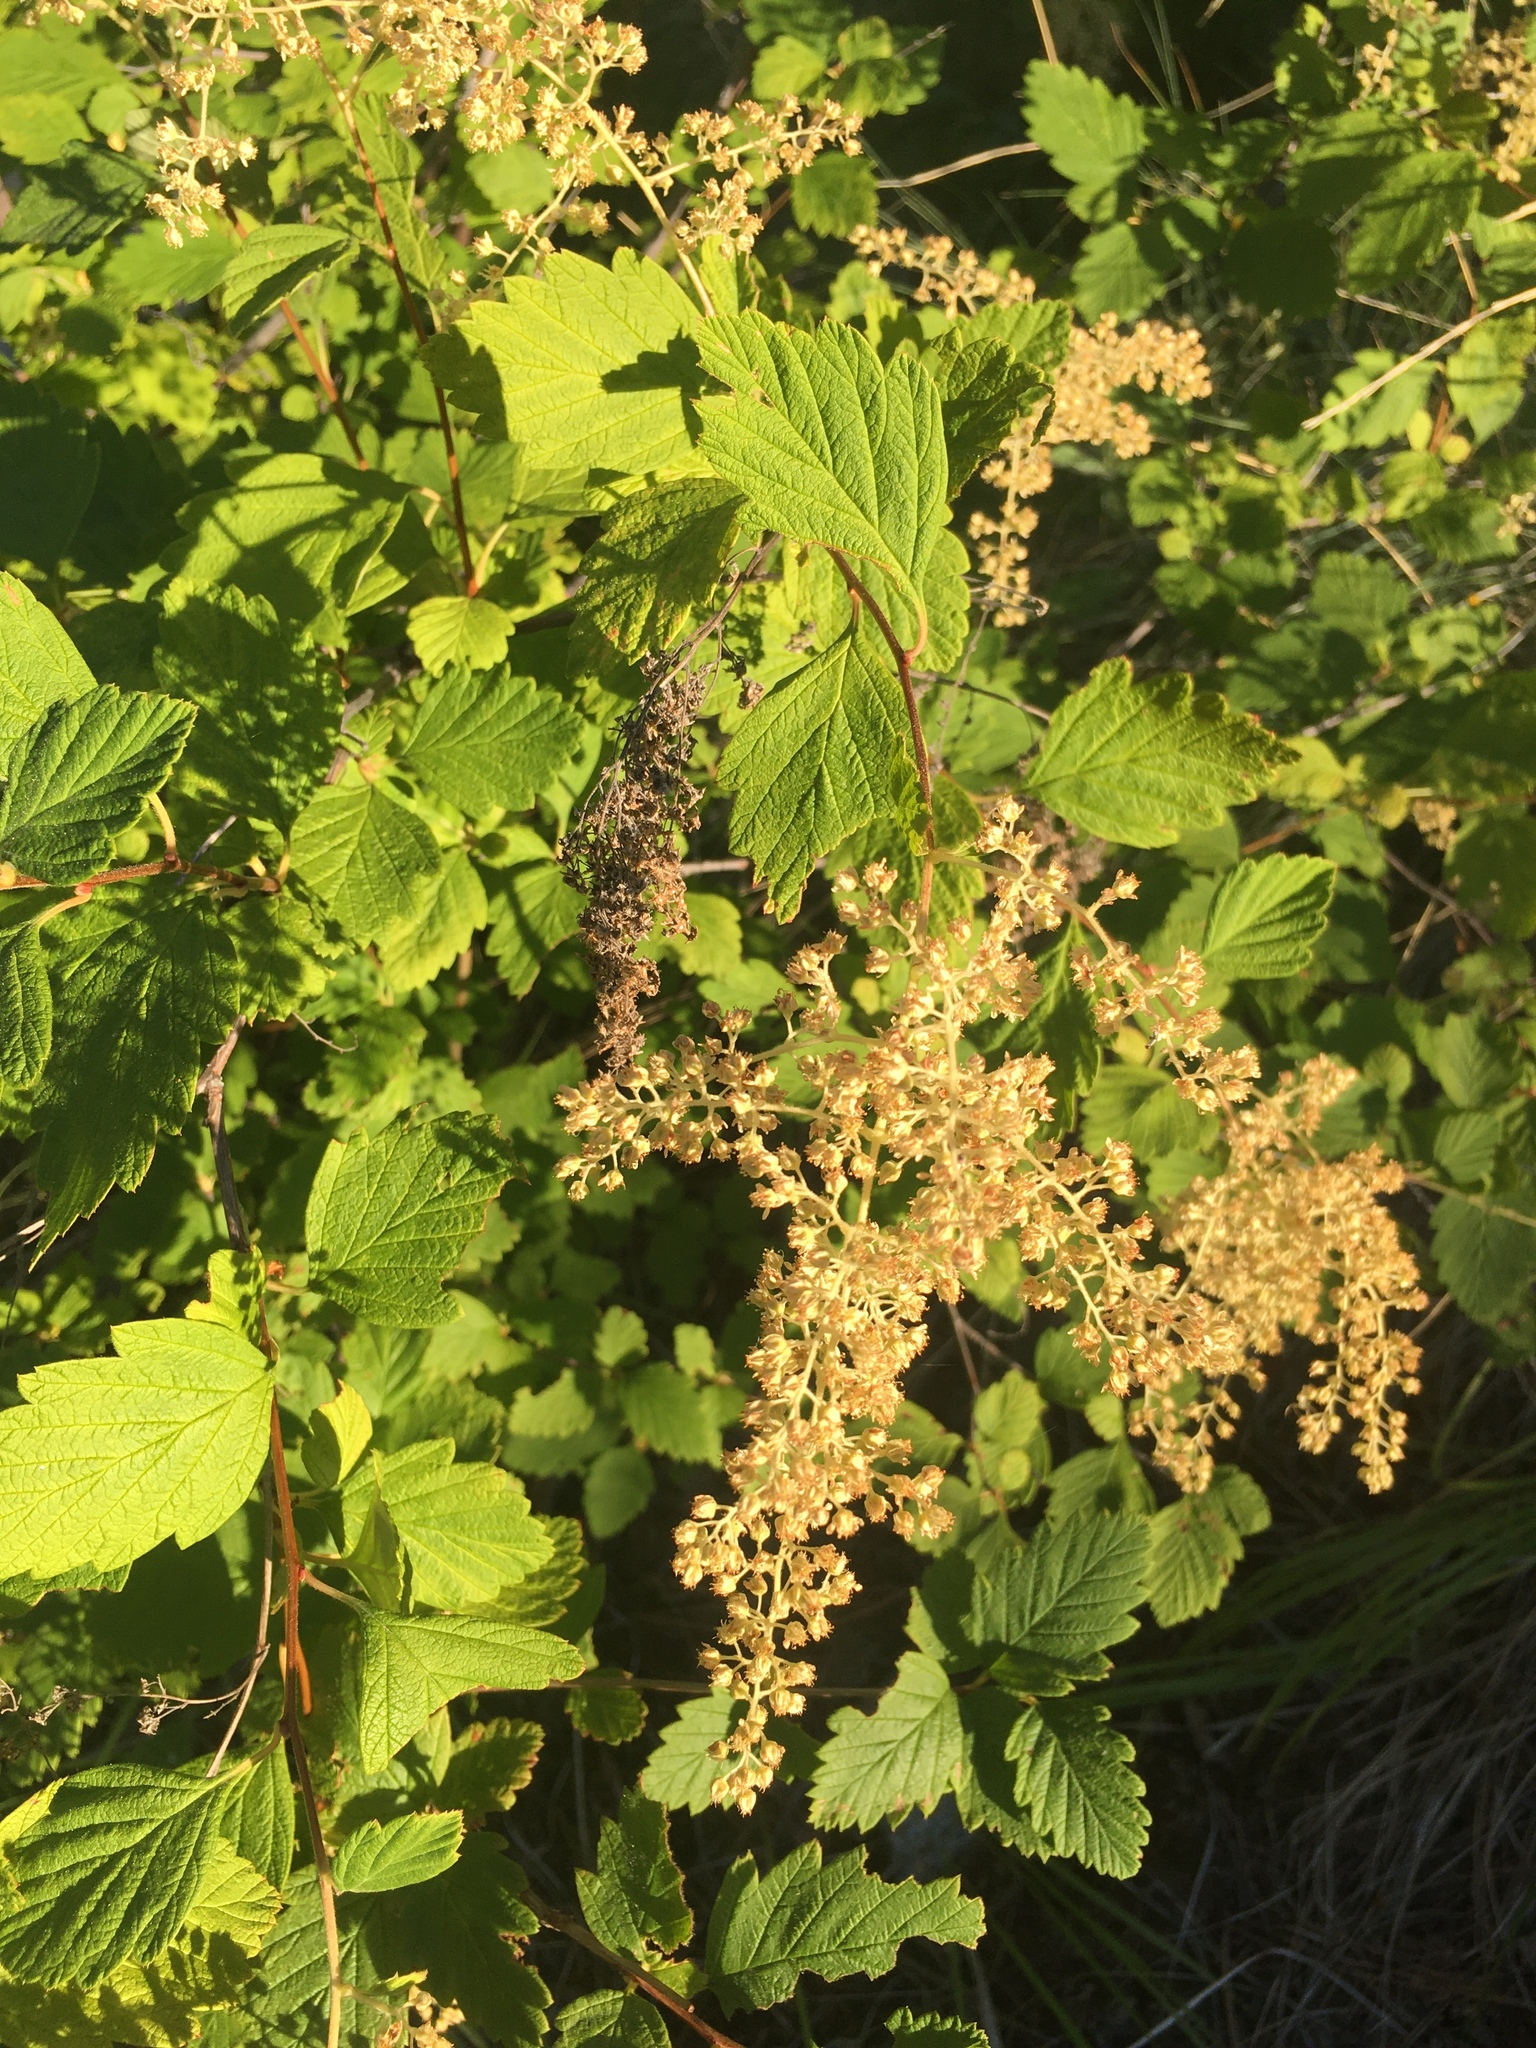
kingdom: Plantae
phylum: Tracheophyta
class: Magnoliopsida
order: Rosales
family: Rosaceae
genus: Holodiscus
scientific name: Holodiscus discolor
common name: Oceanspray
